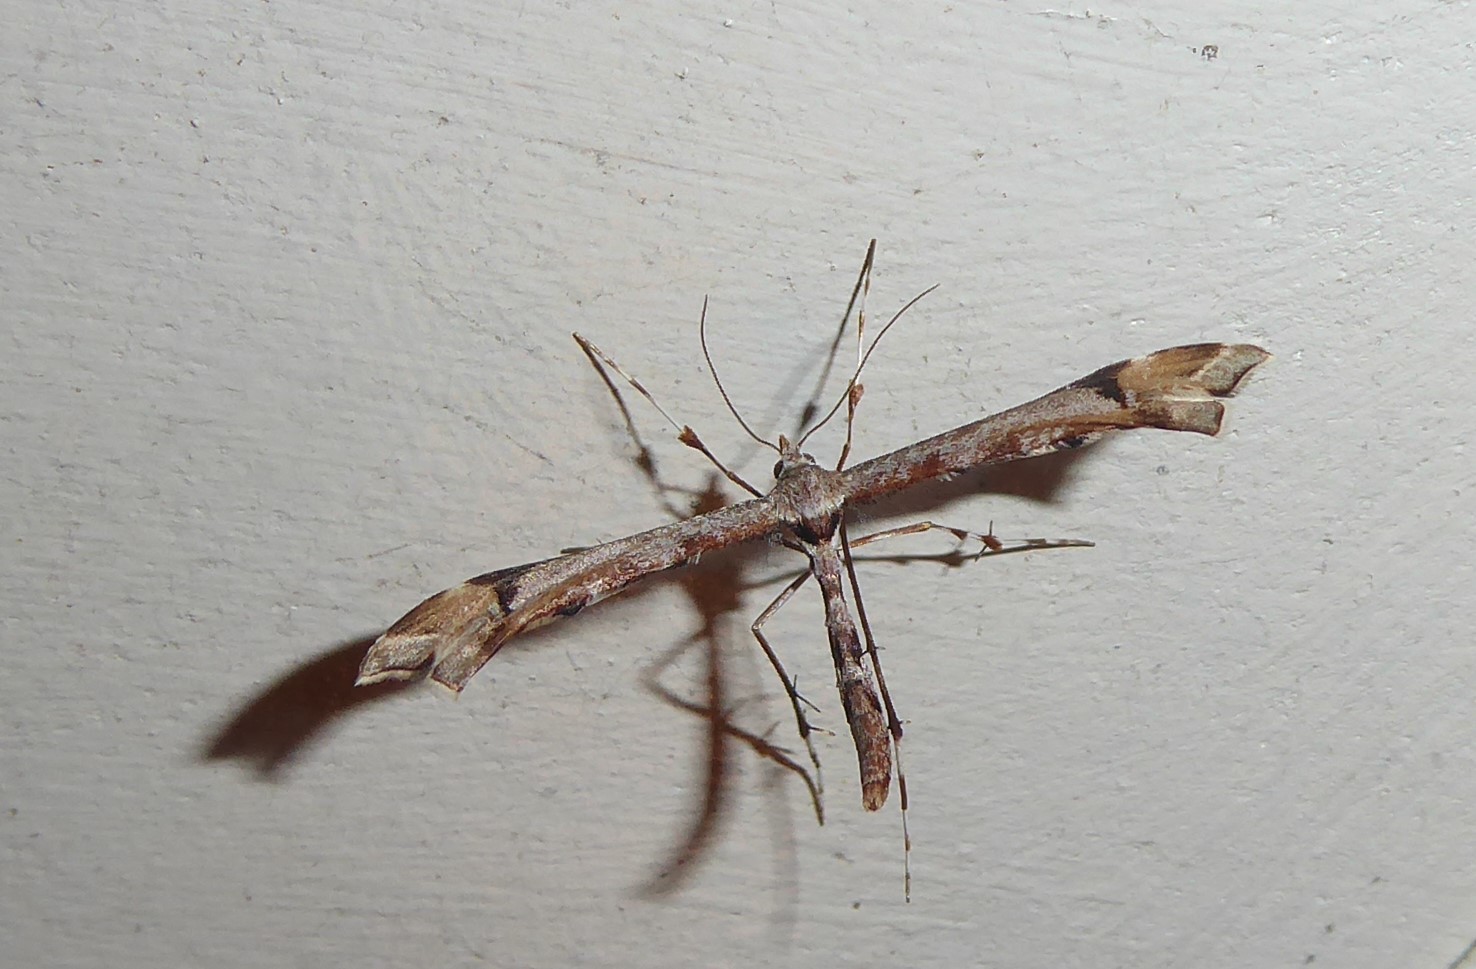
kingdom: Animalia
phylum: Arthropoda
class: Insecta
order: Lepidoptera
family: Pterophoridae
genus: Amblyptilia
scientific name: Amblyptilia falcatalis
